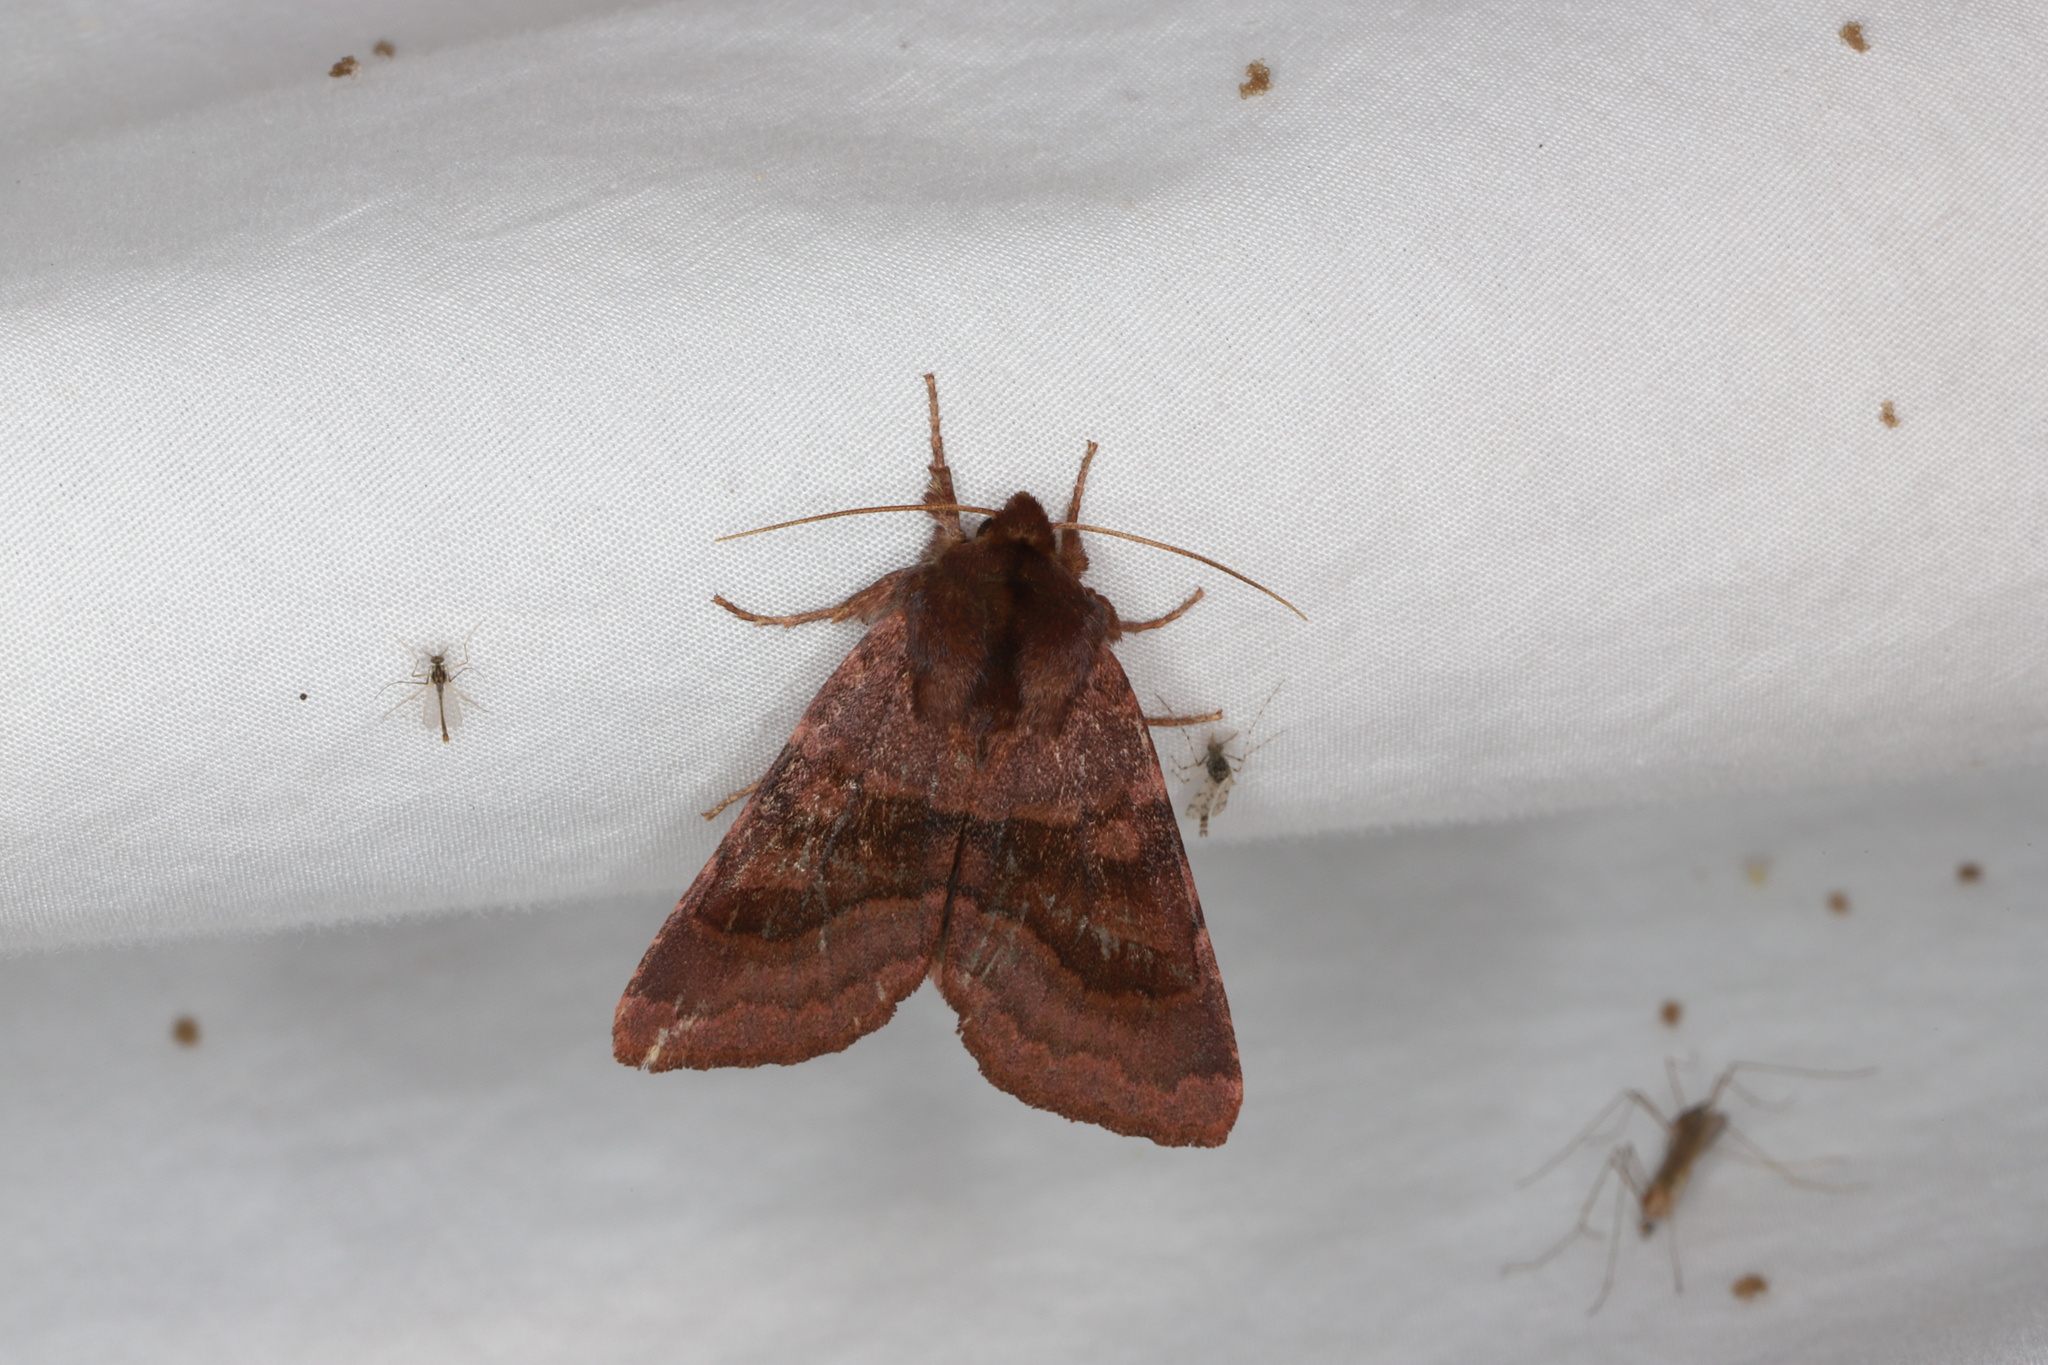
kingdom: Animalia
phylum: Arthropoda
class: Insecta
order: Lepidoptera
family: Noctuidae
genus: Nephelodes
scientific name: Nephelodes minians
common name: Bronzed cutworm
